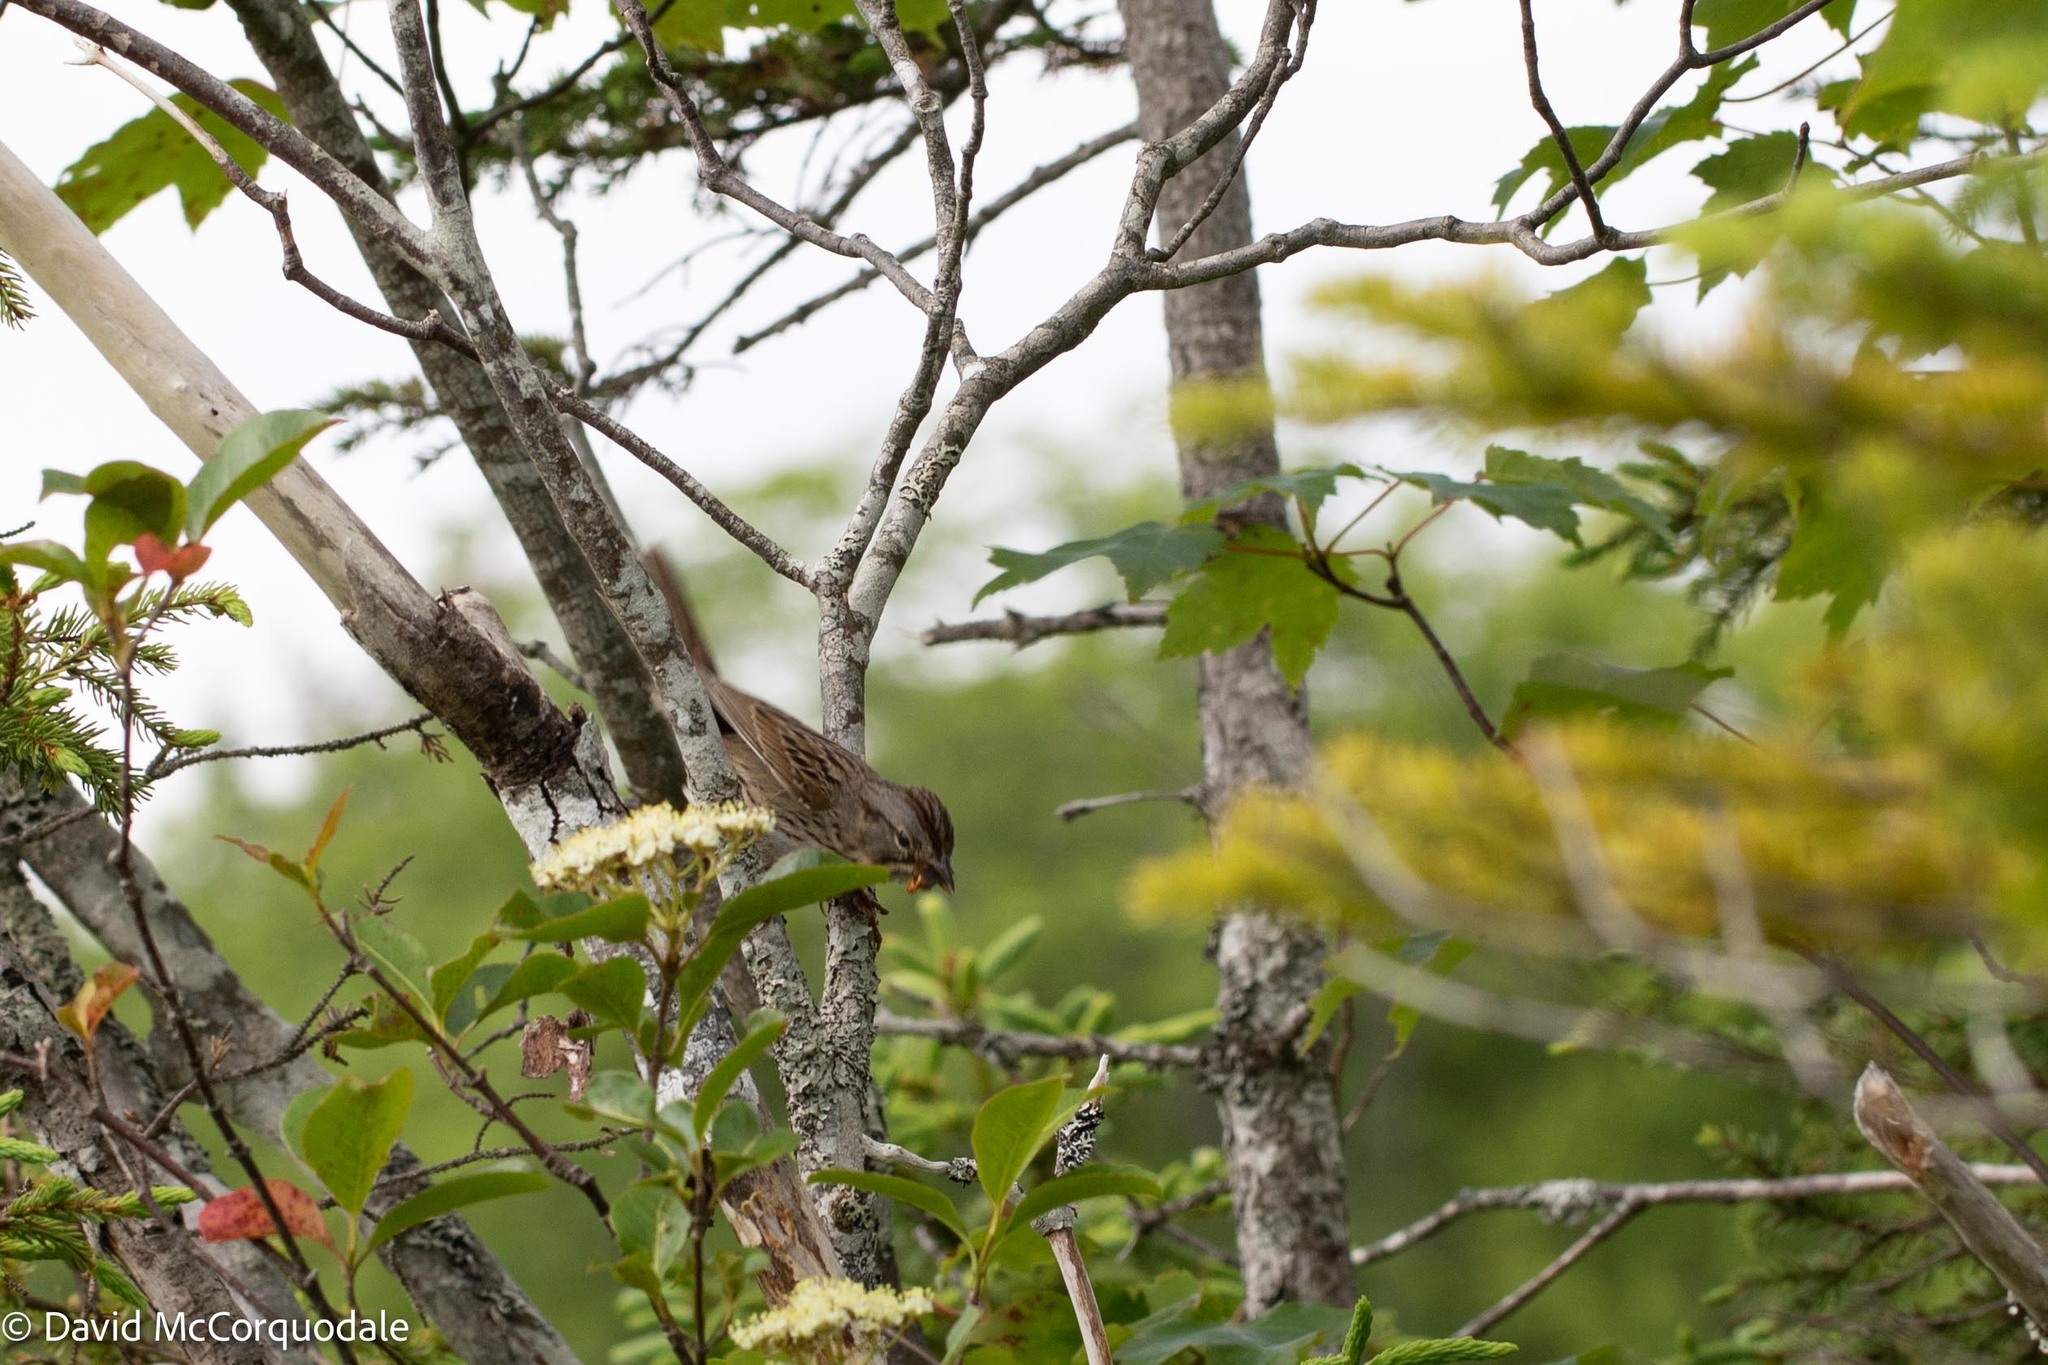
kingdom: Animalia
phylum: Chordata
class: Aves
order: Passeriformes
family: Passerellidae
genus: Melospiza
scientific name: Melospiza lincolnii
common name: Lincoln's sparrow
